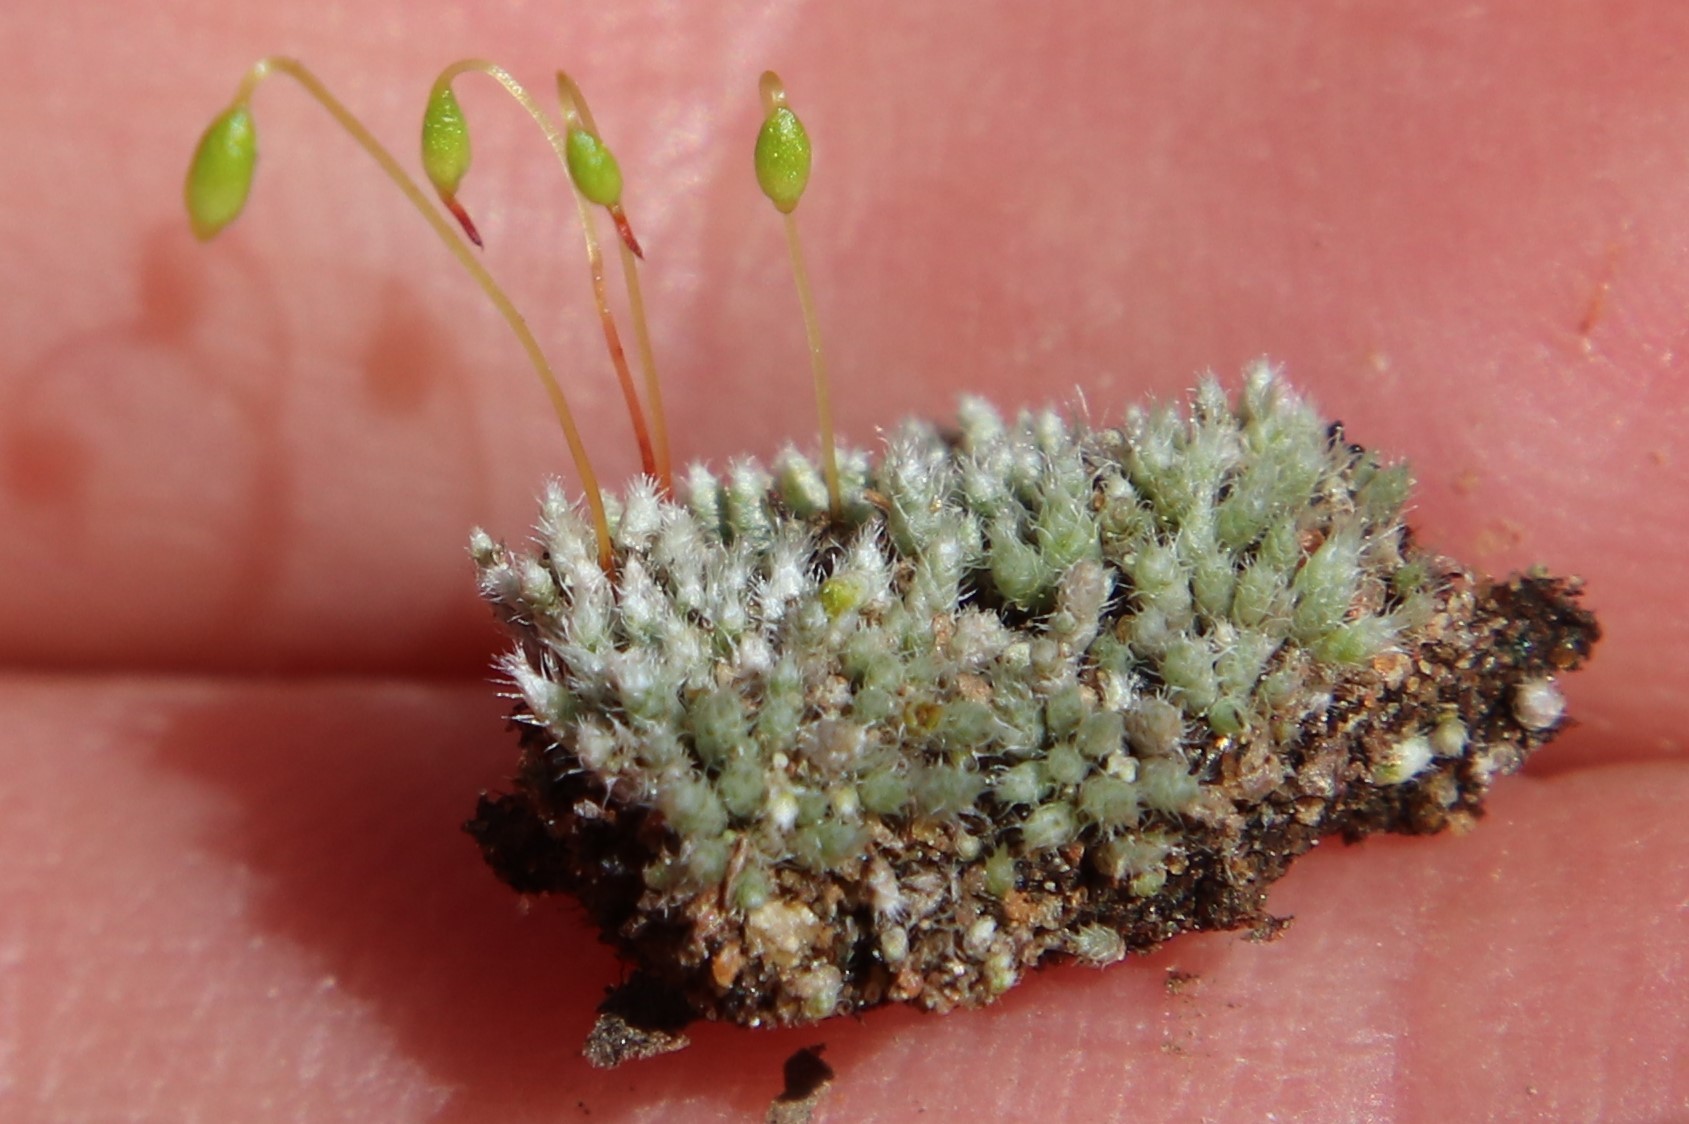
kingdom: Plantae
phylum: Bryophyta
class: Bryopsida
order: Bryales
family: Bryaceae
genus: Bryum
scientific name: Bryum argenteum
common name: Silver-moss
